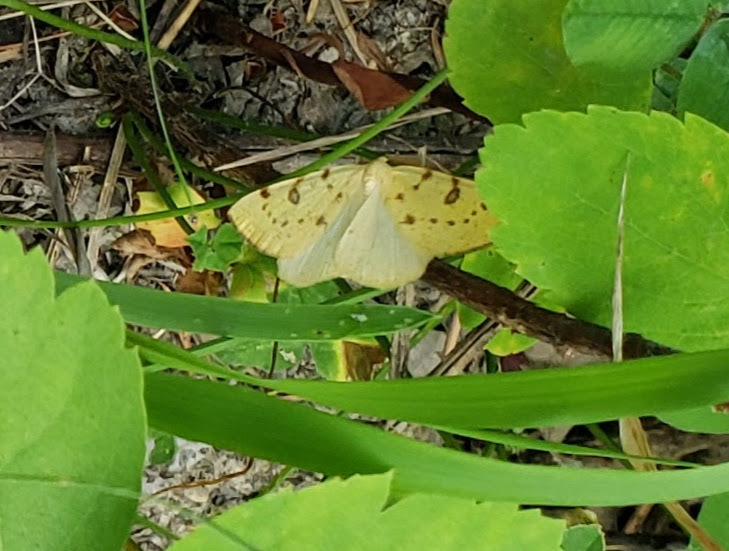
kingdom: Animalia
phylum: Arthropoda
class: Insecta
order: Lepidoptera
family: Geometridae
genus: Hesperumia
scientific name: Hesperumia sulphuraria
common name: Sulphur moth
